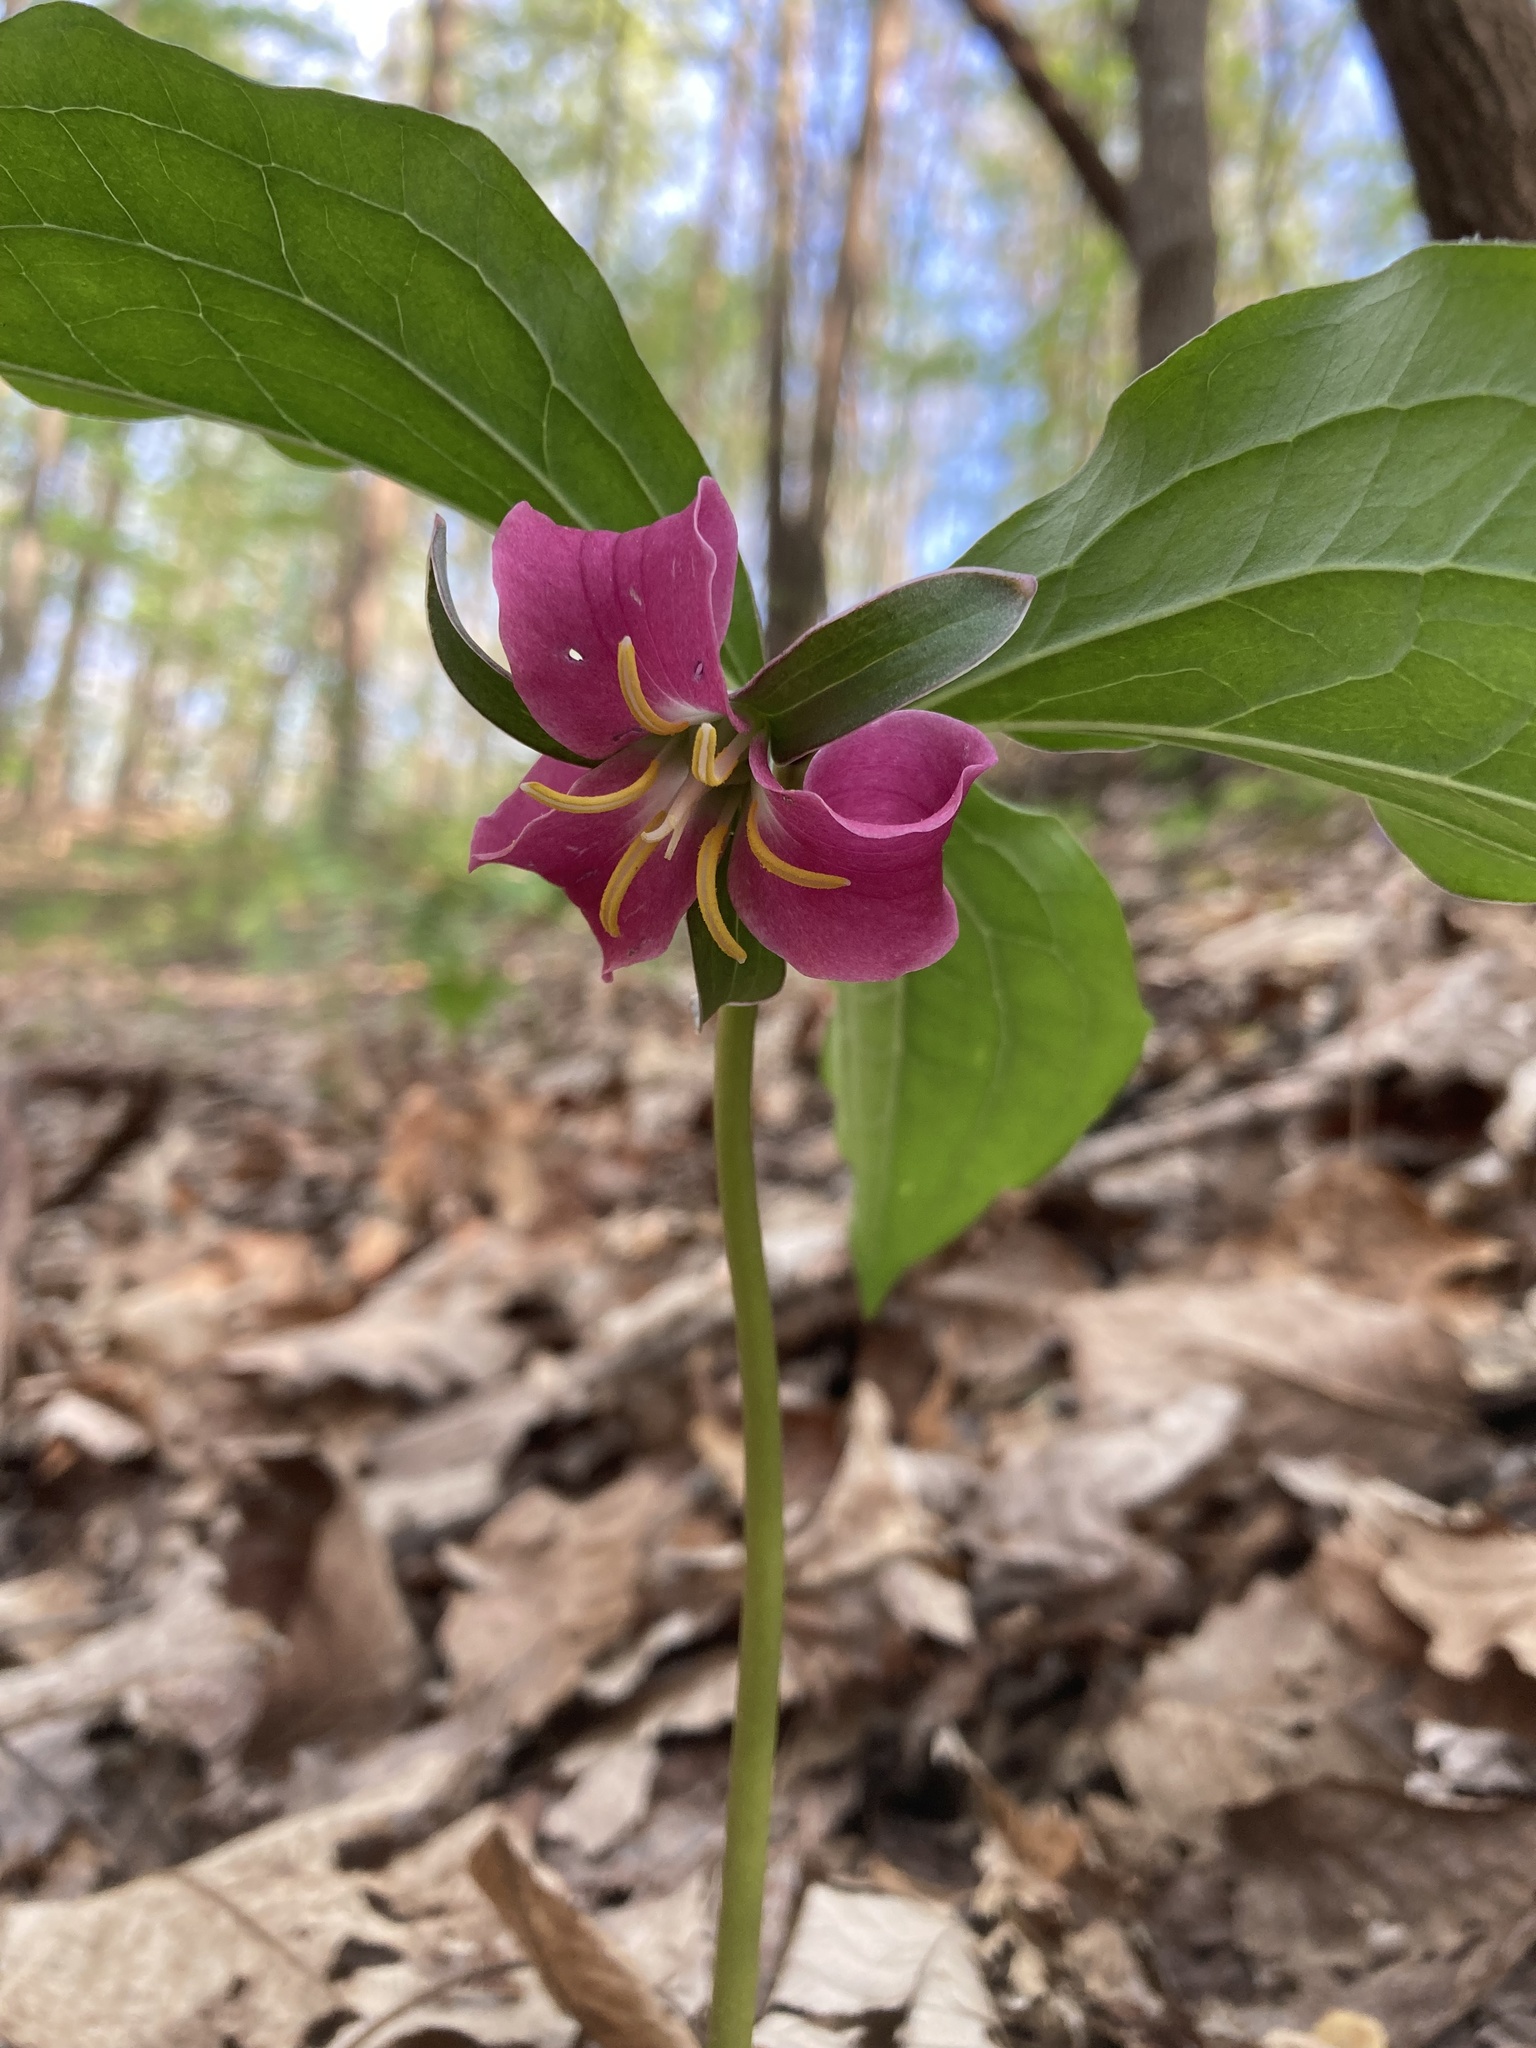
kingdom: Plantae
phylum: Tracheophyta
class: Liliopsida
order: Liliales
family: Melanthiaceae
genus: Trillium
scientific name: Trillium catesbaei
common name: Bashful trillium
